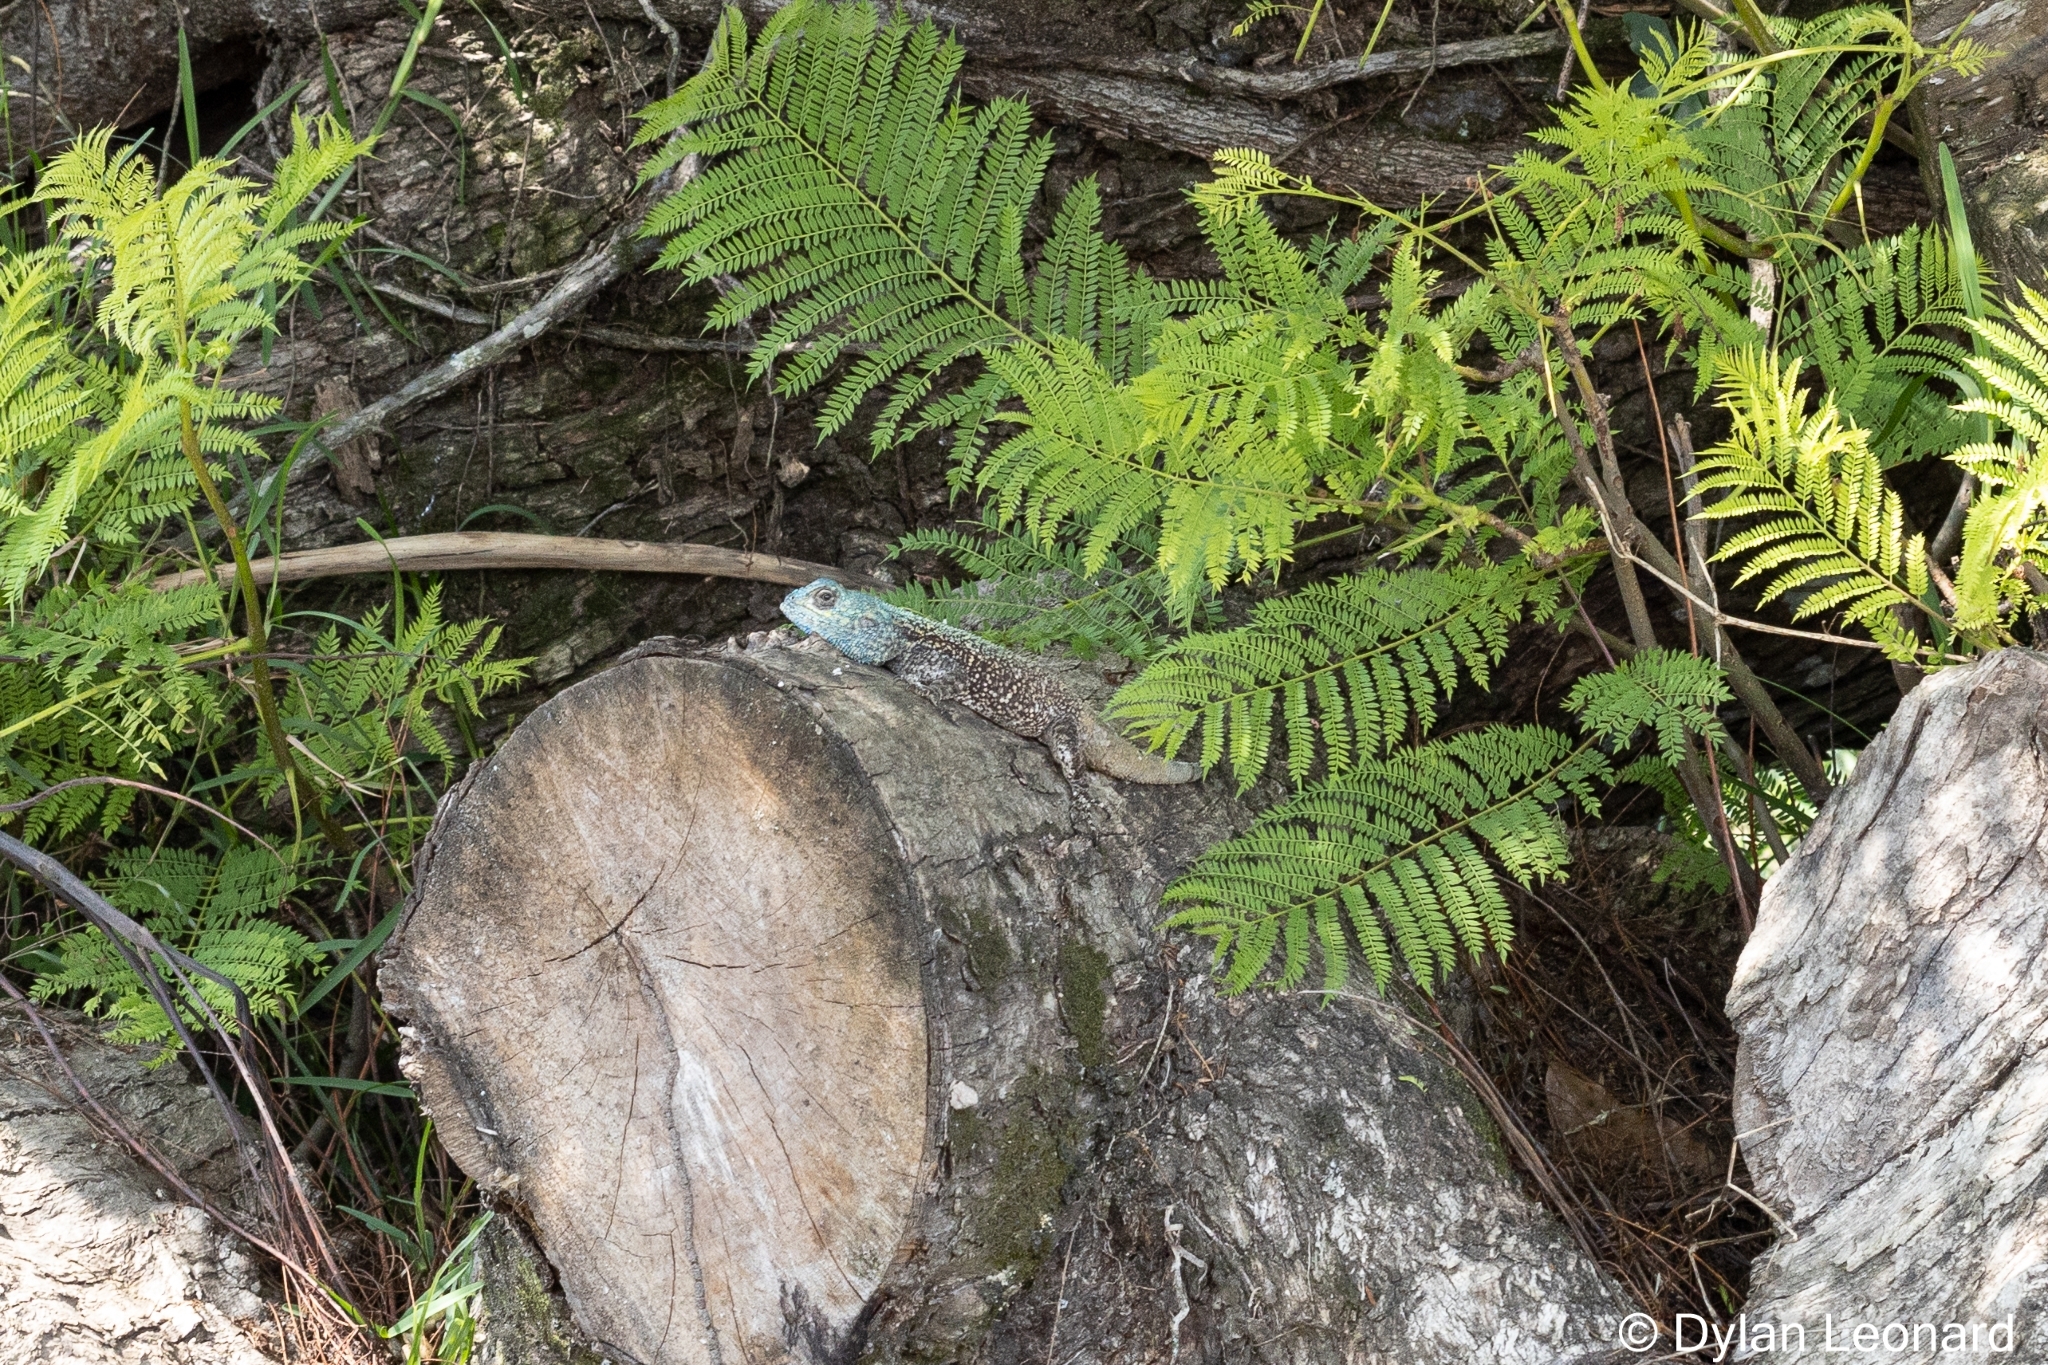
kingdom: Animalia
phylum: Chordata
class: Squamata
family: Agamidae
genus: Acanthocercus
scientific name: Acanthocercus atricollis
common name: Southern tree agama
